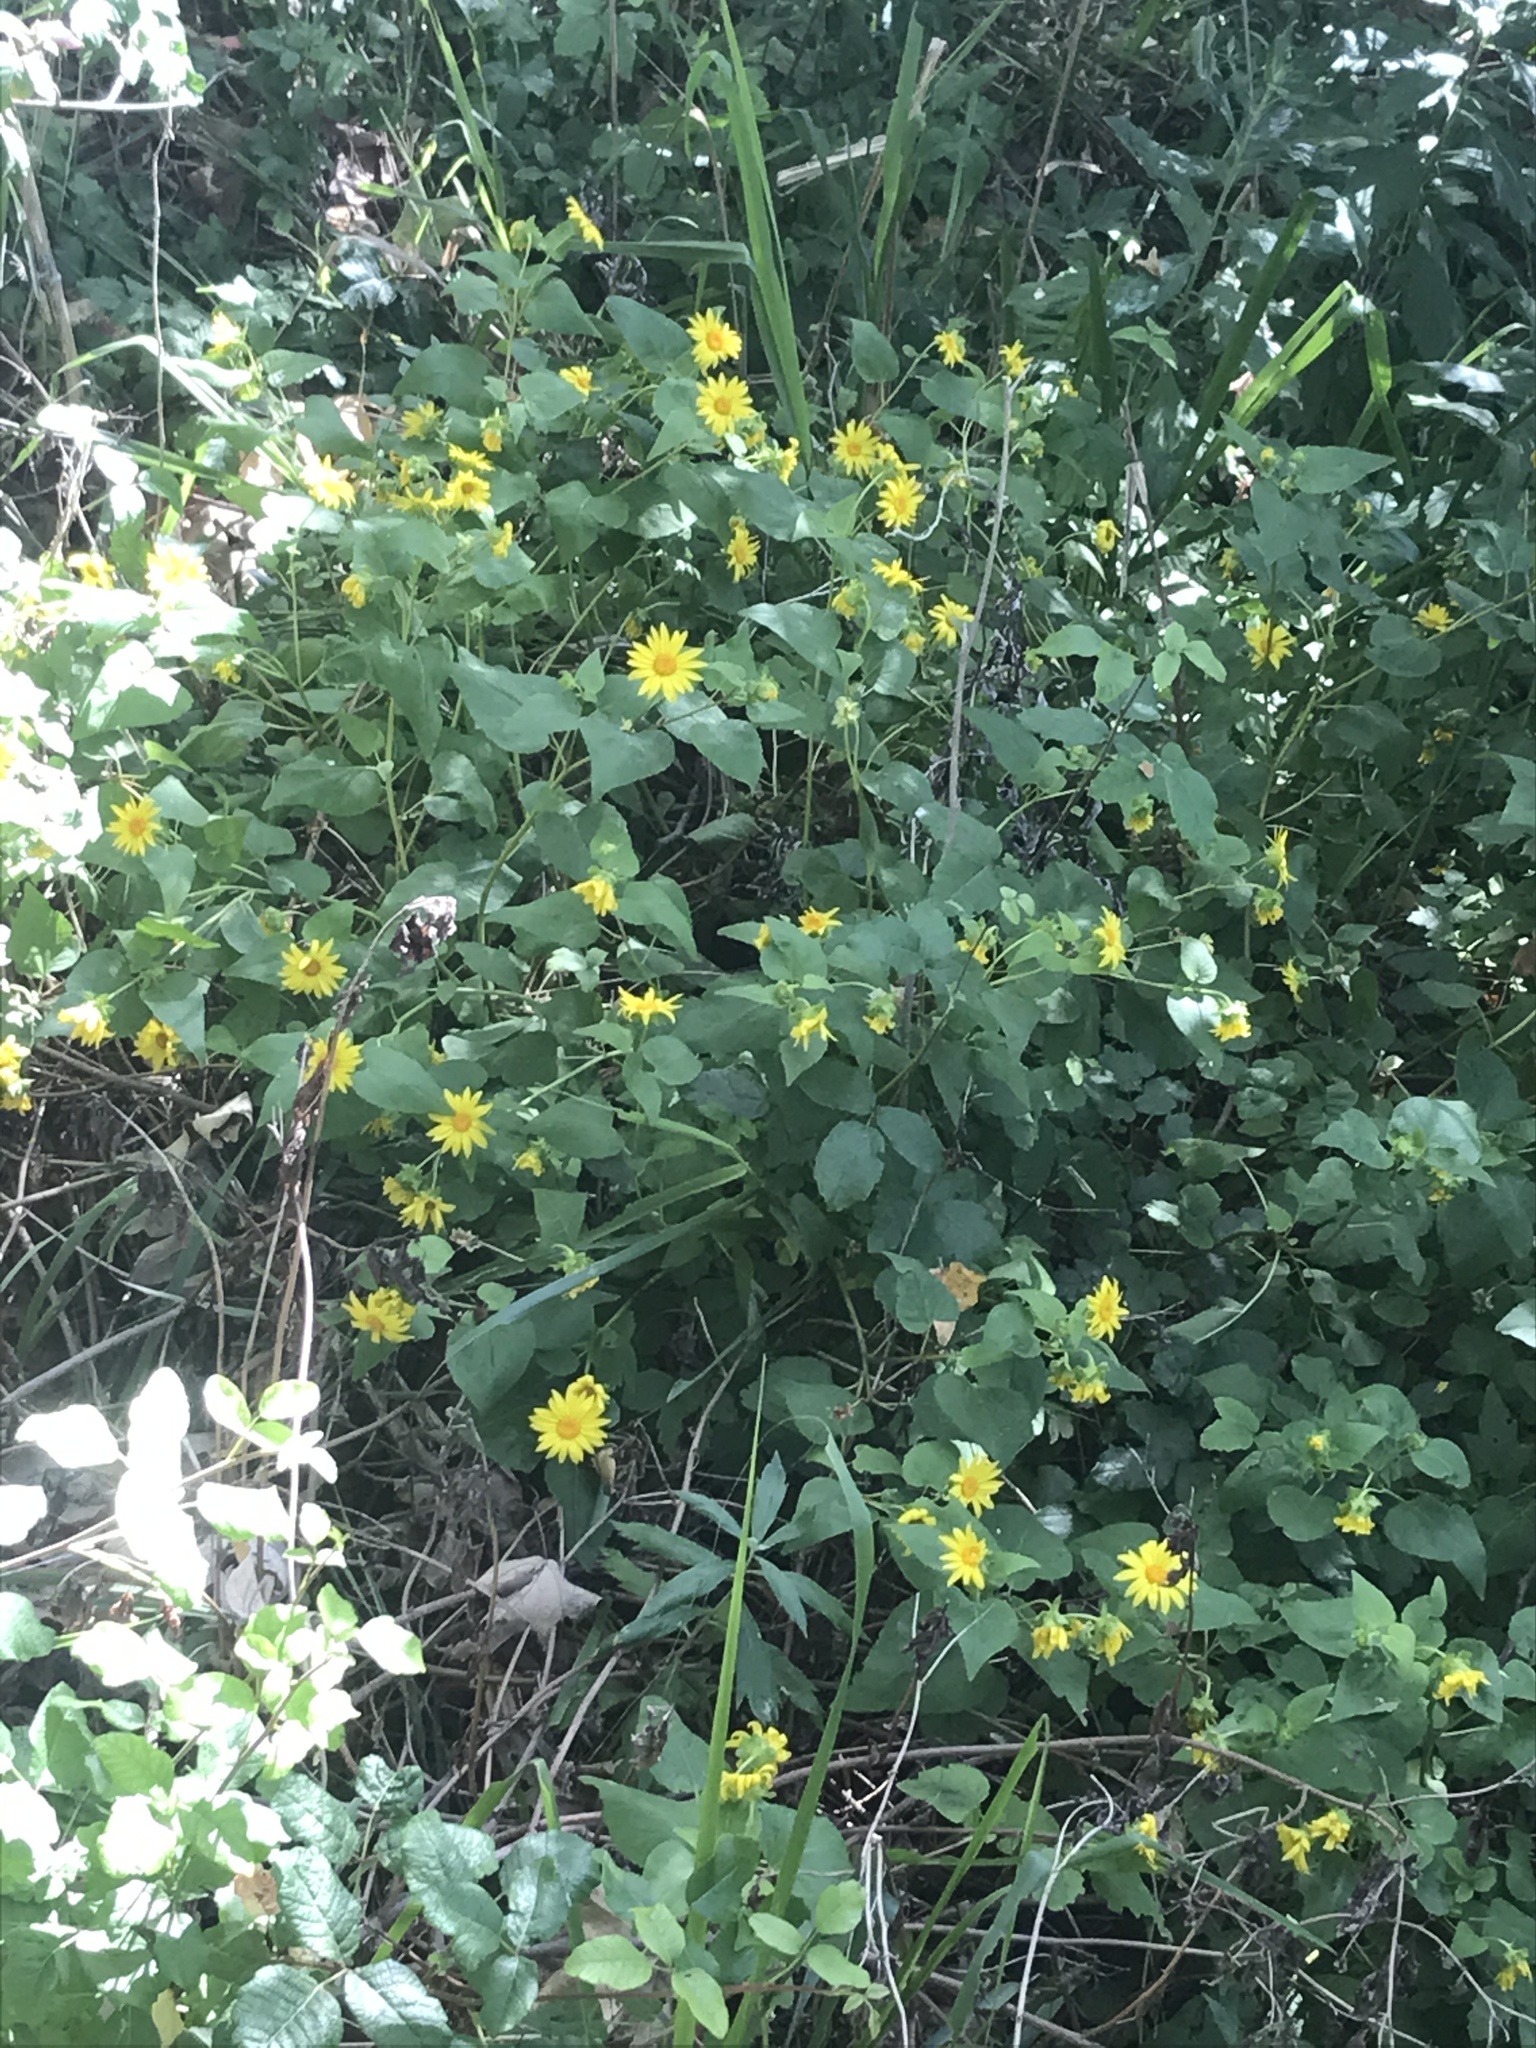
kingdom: Plantae
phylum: Tracheophyta
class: Magnoliopsida
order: Asterales
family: Asteraceae
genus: Venegasia
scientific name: Venegasia carpesioides
